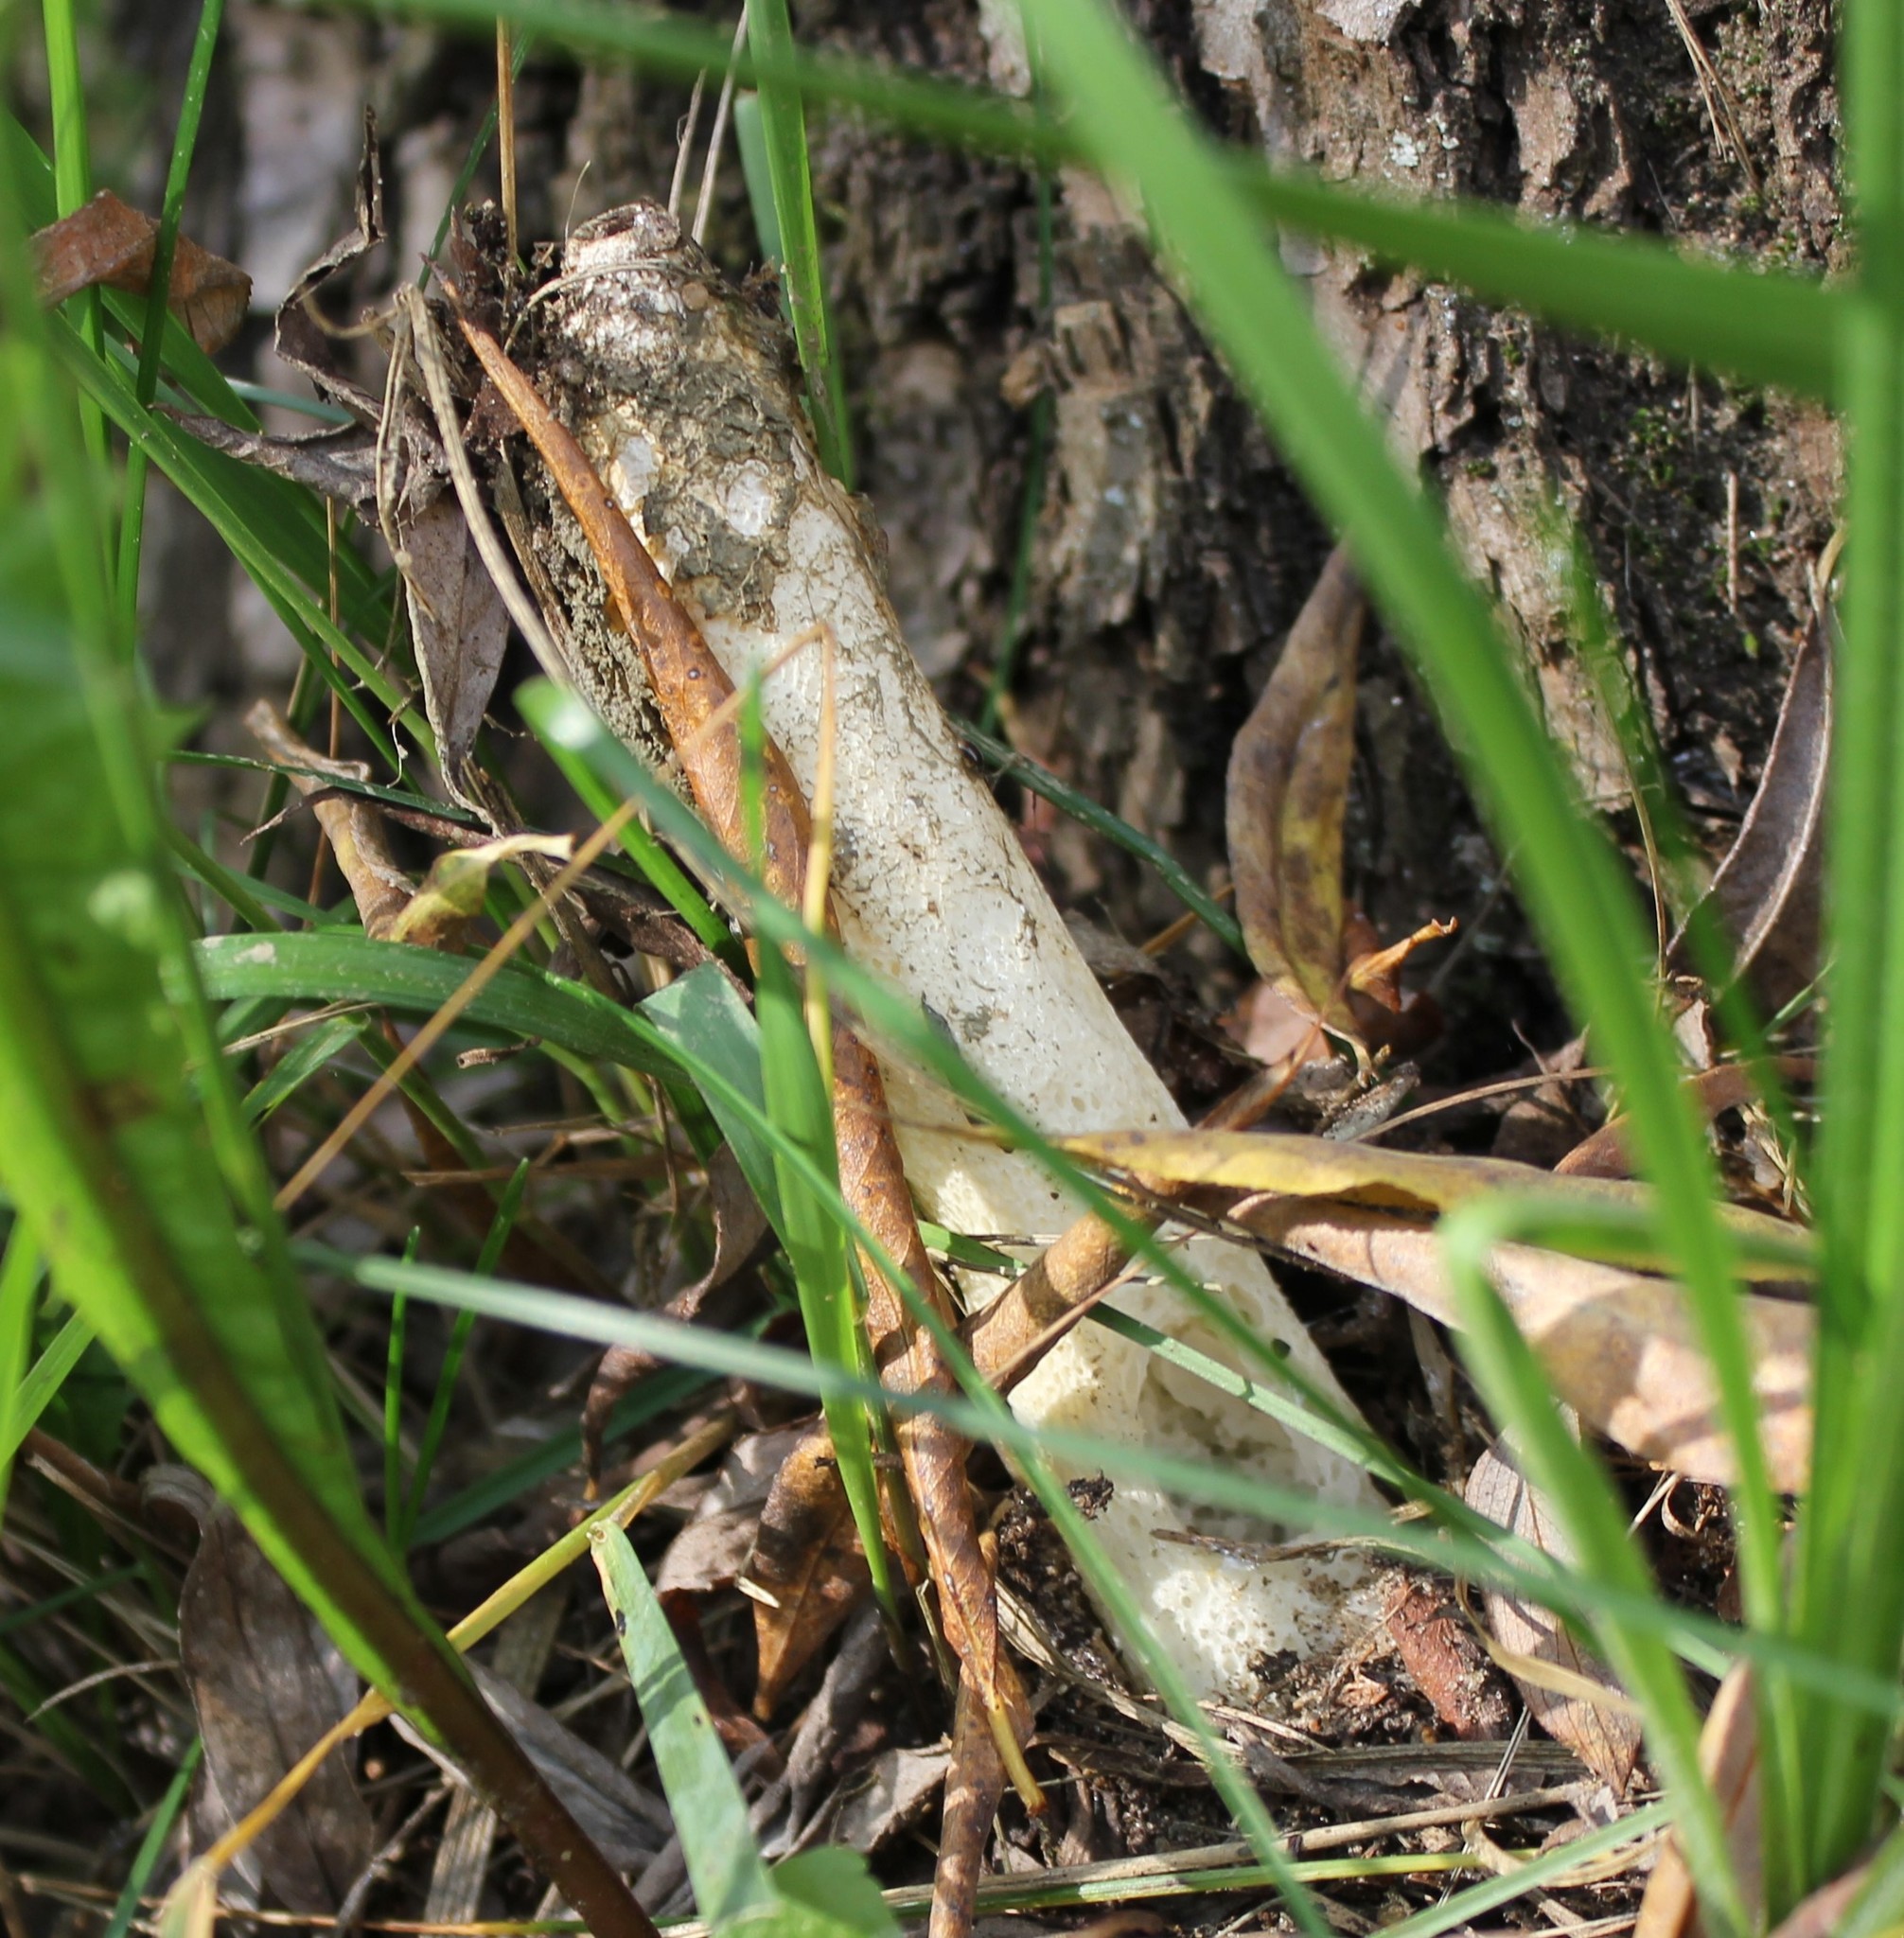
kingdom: Fungi
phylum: Basidiomycota
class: Agaricomycetes
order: Phallales
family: Phallaceae
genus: Phallus
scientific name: Phallus impudicus
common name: Common stinkhorn
